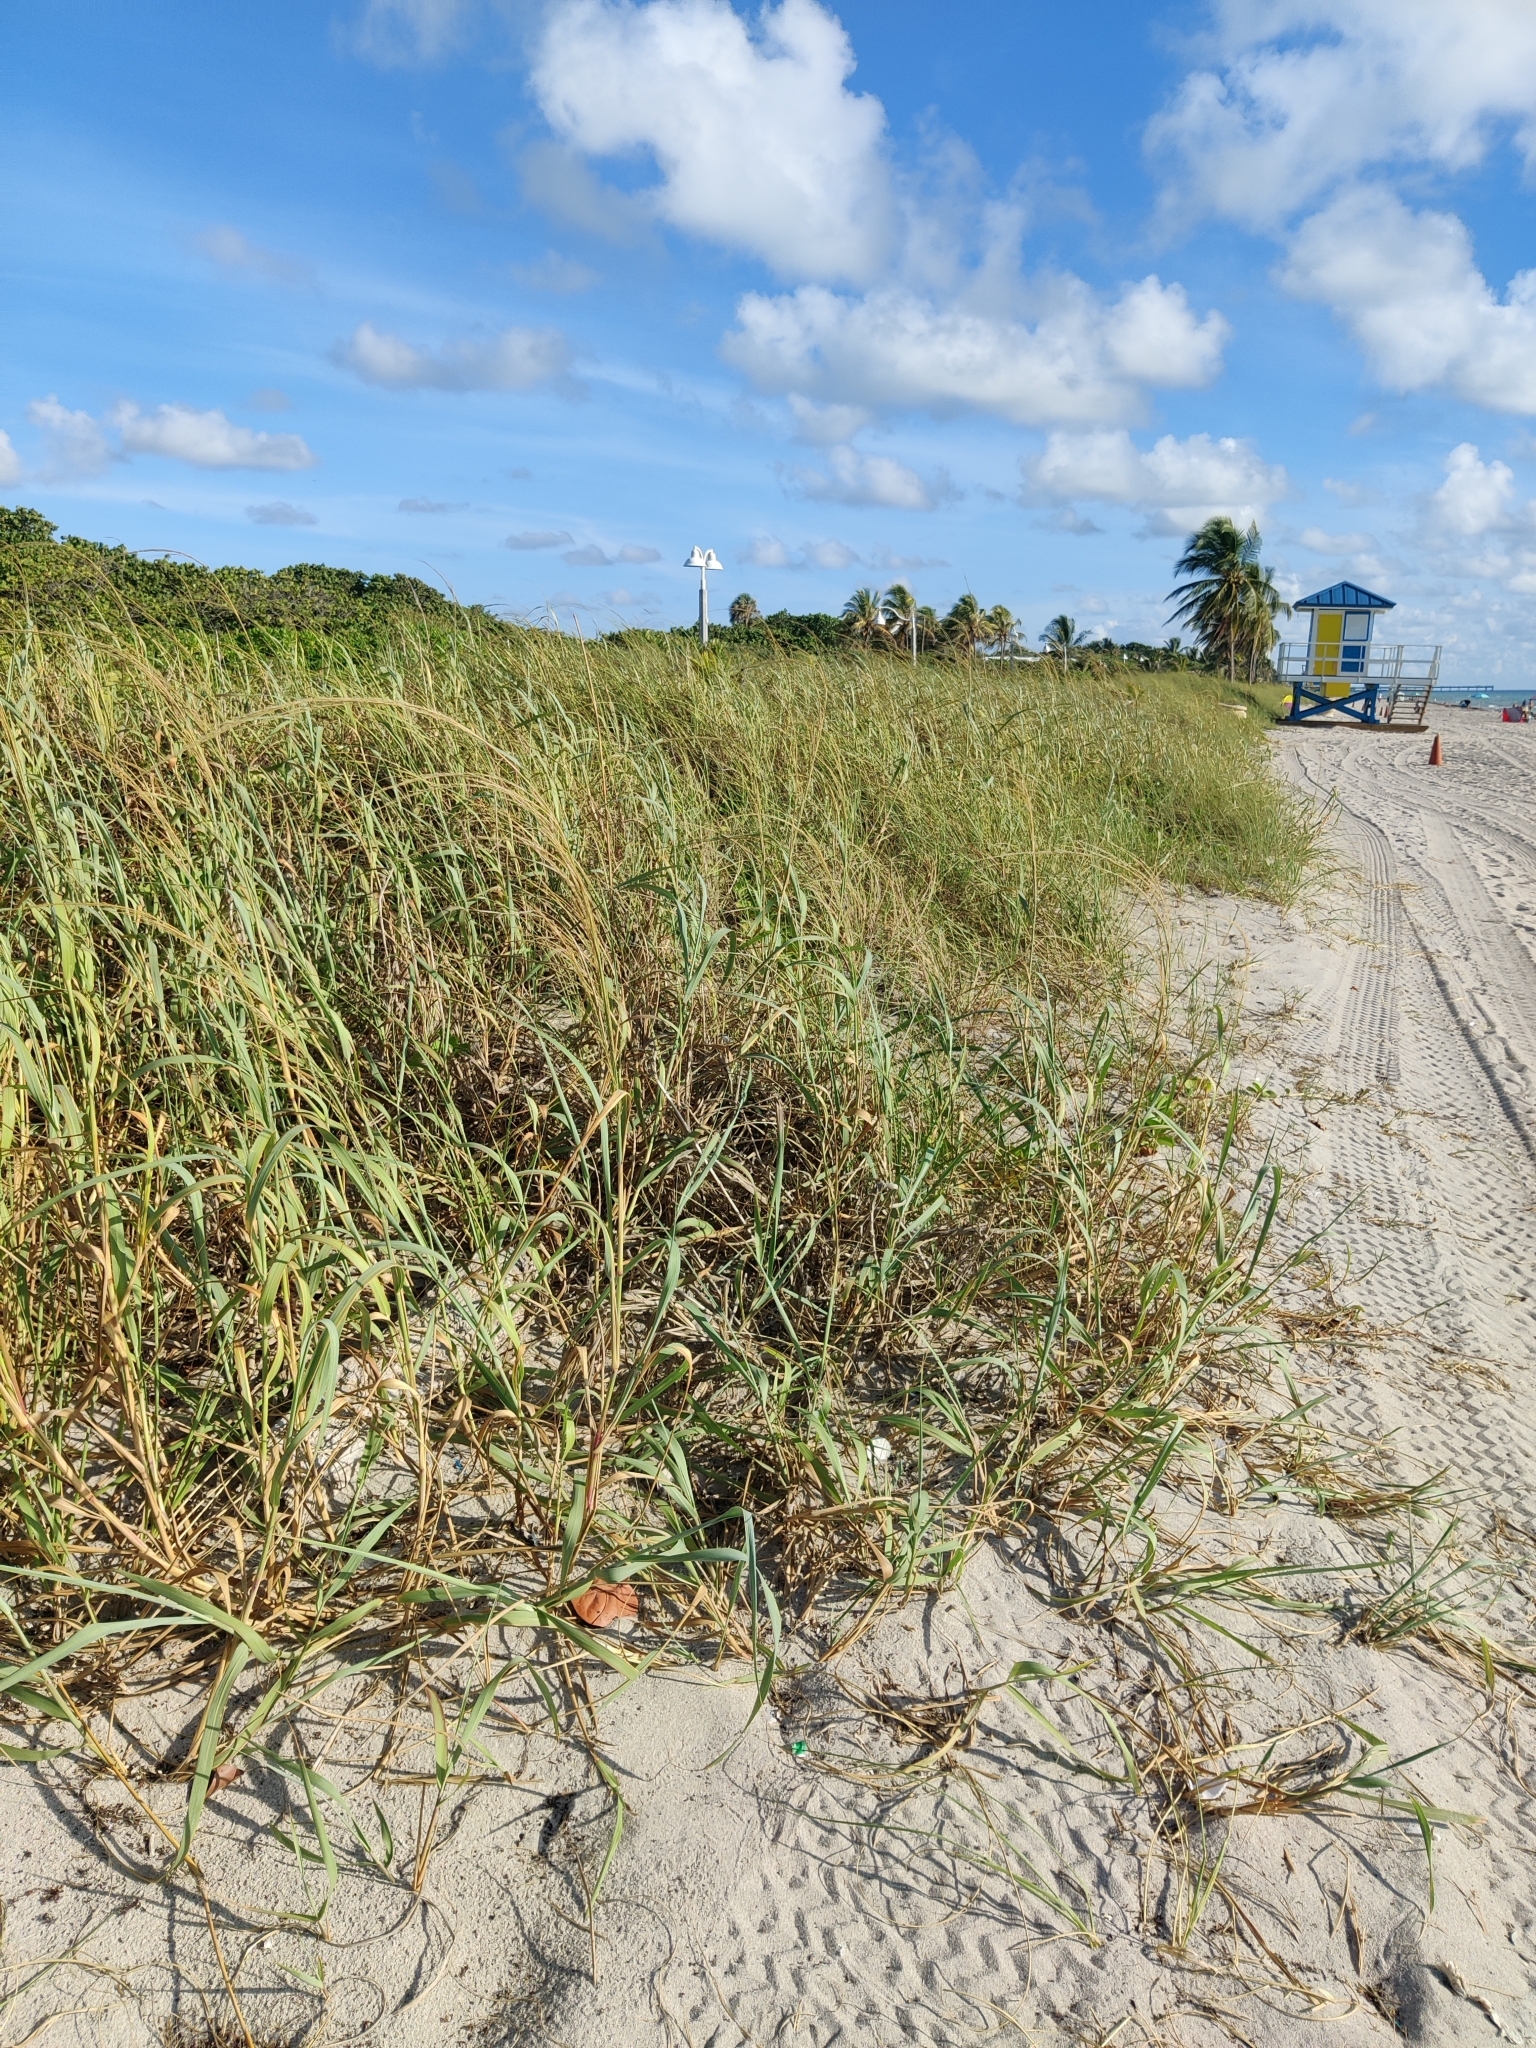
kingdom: Plantae
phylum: Tracheophyta
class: Liliopsida
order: Poales
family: Poaceae
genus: Panicum
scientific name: Panicum amarum
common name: Bitter panicum
